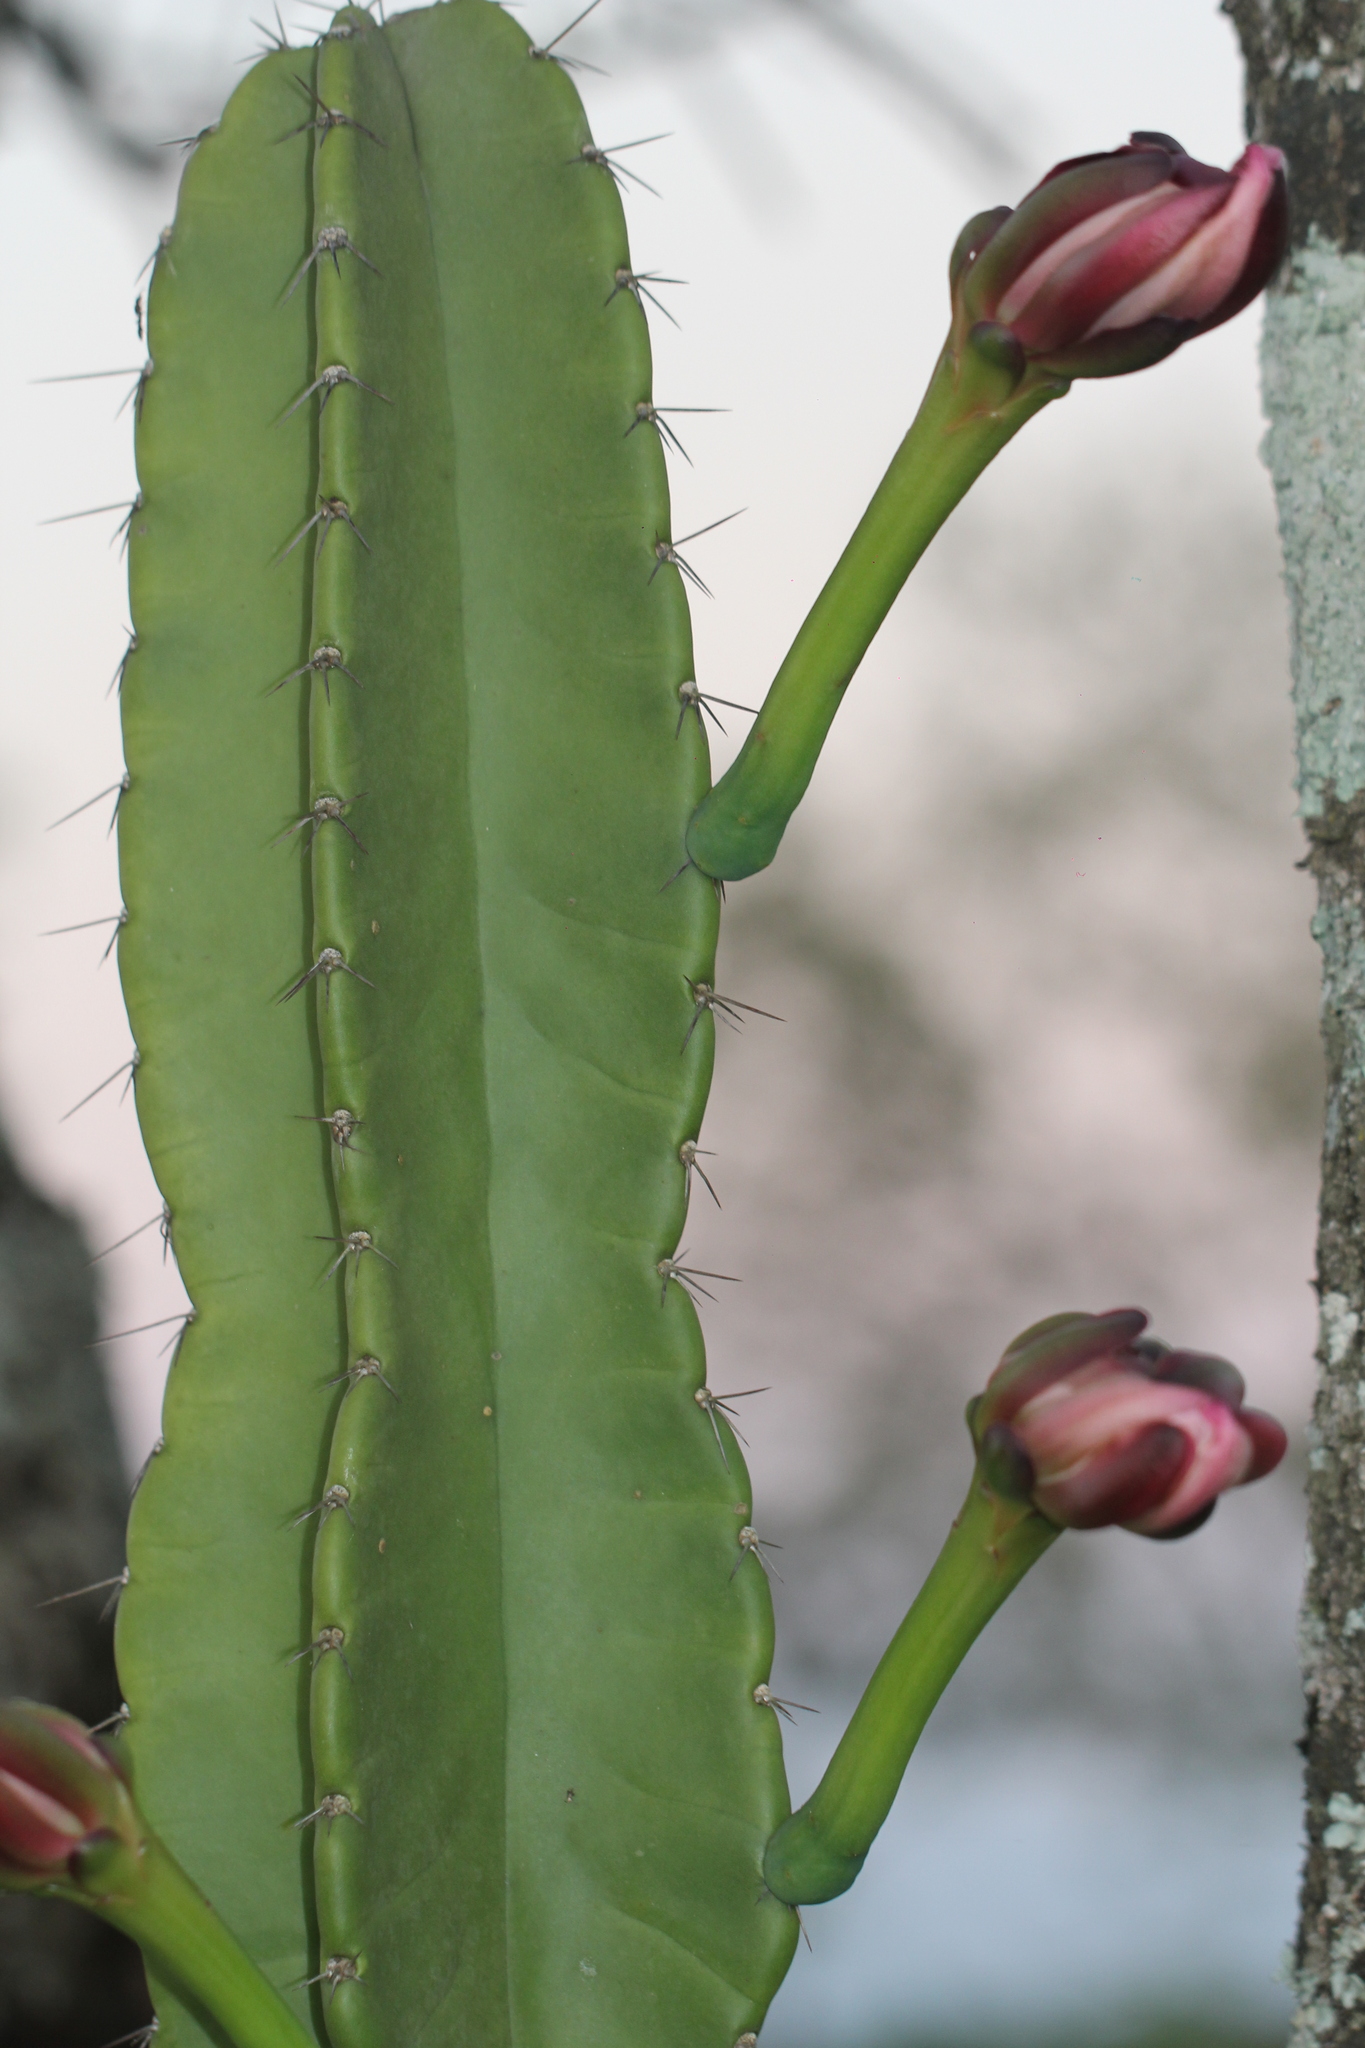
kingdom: Plantae
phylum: Tracheophyta
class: Magnoliopsida
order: Caryophyllales
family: Cactaceae
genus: Cereus
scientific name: Cereus hildmannianus
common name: Hedge cactus
